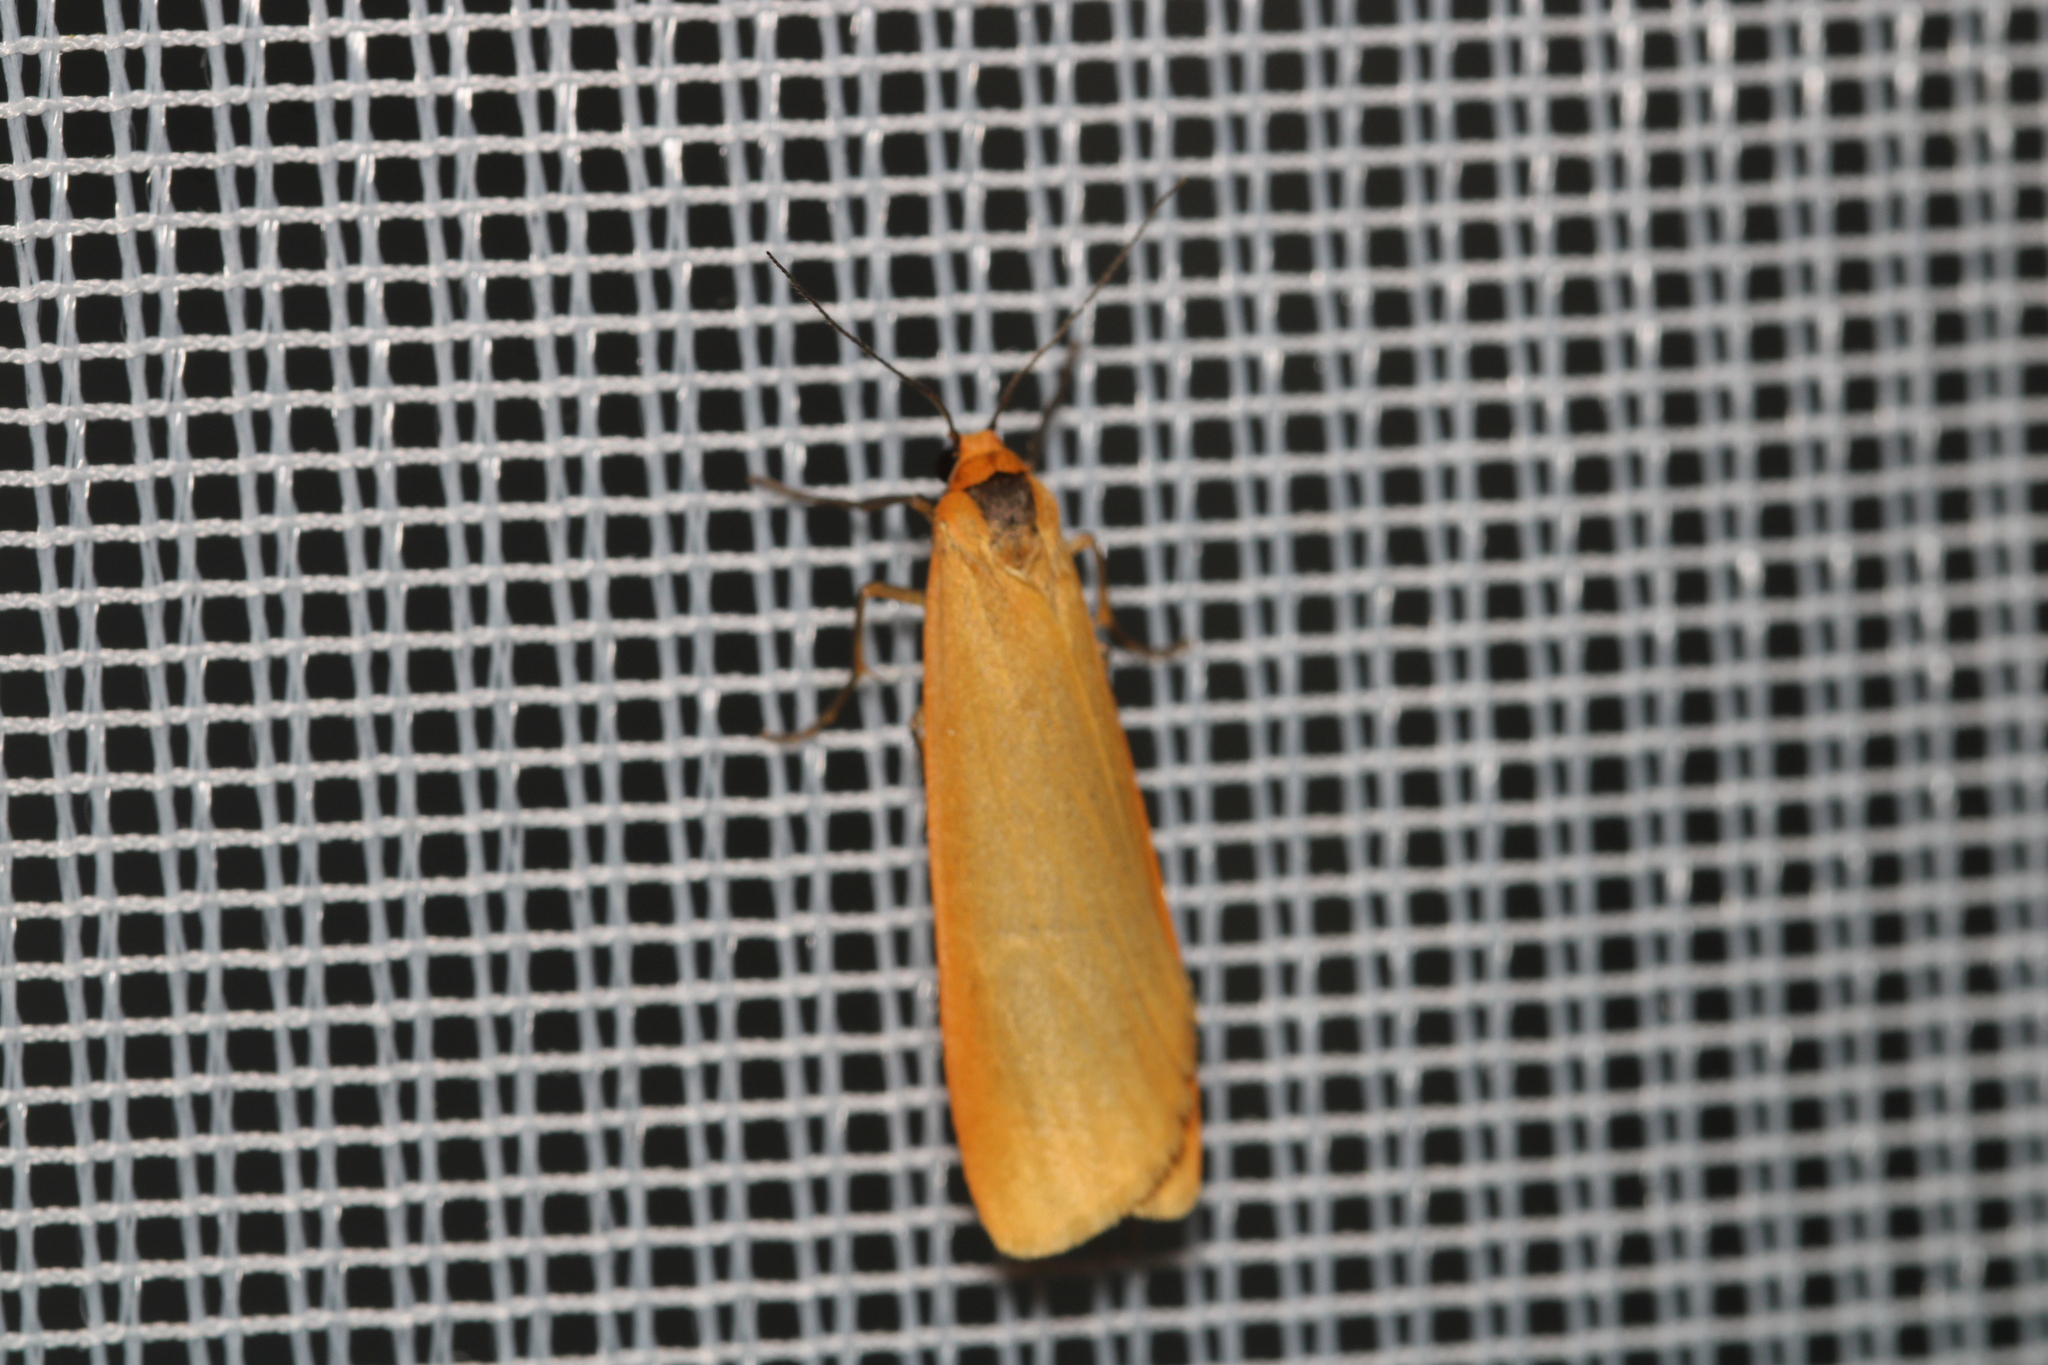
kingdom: Animalia
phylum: Arthropoda
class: Insecta
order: Lepidoptera
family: Erebidae
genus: Manulea
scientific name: Manulea cereola
